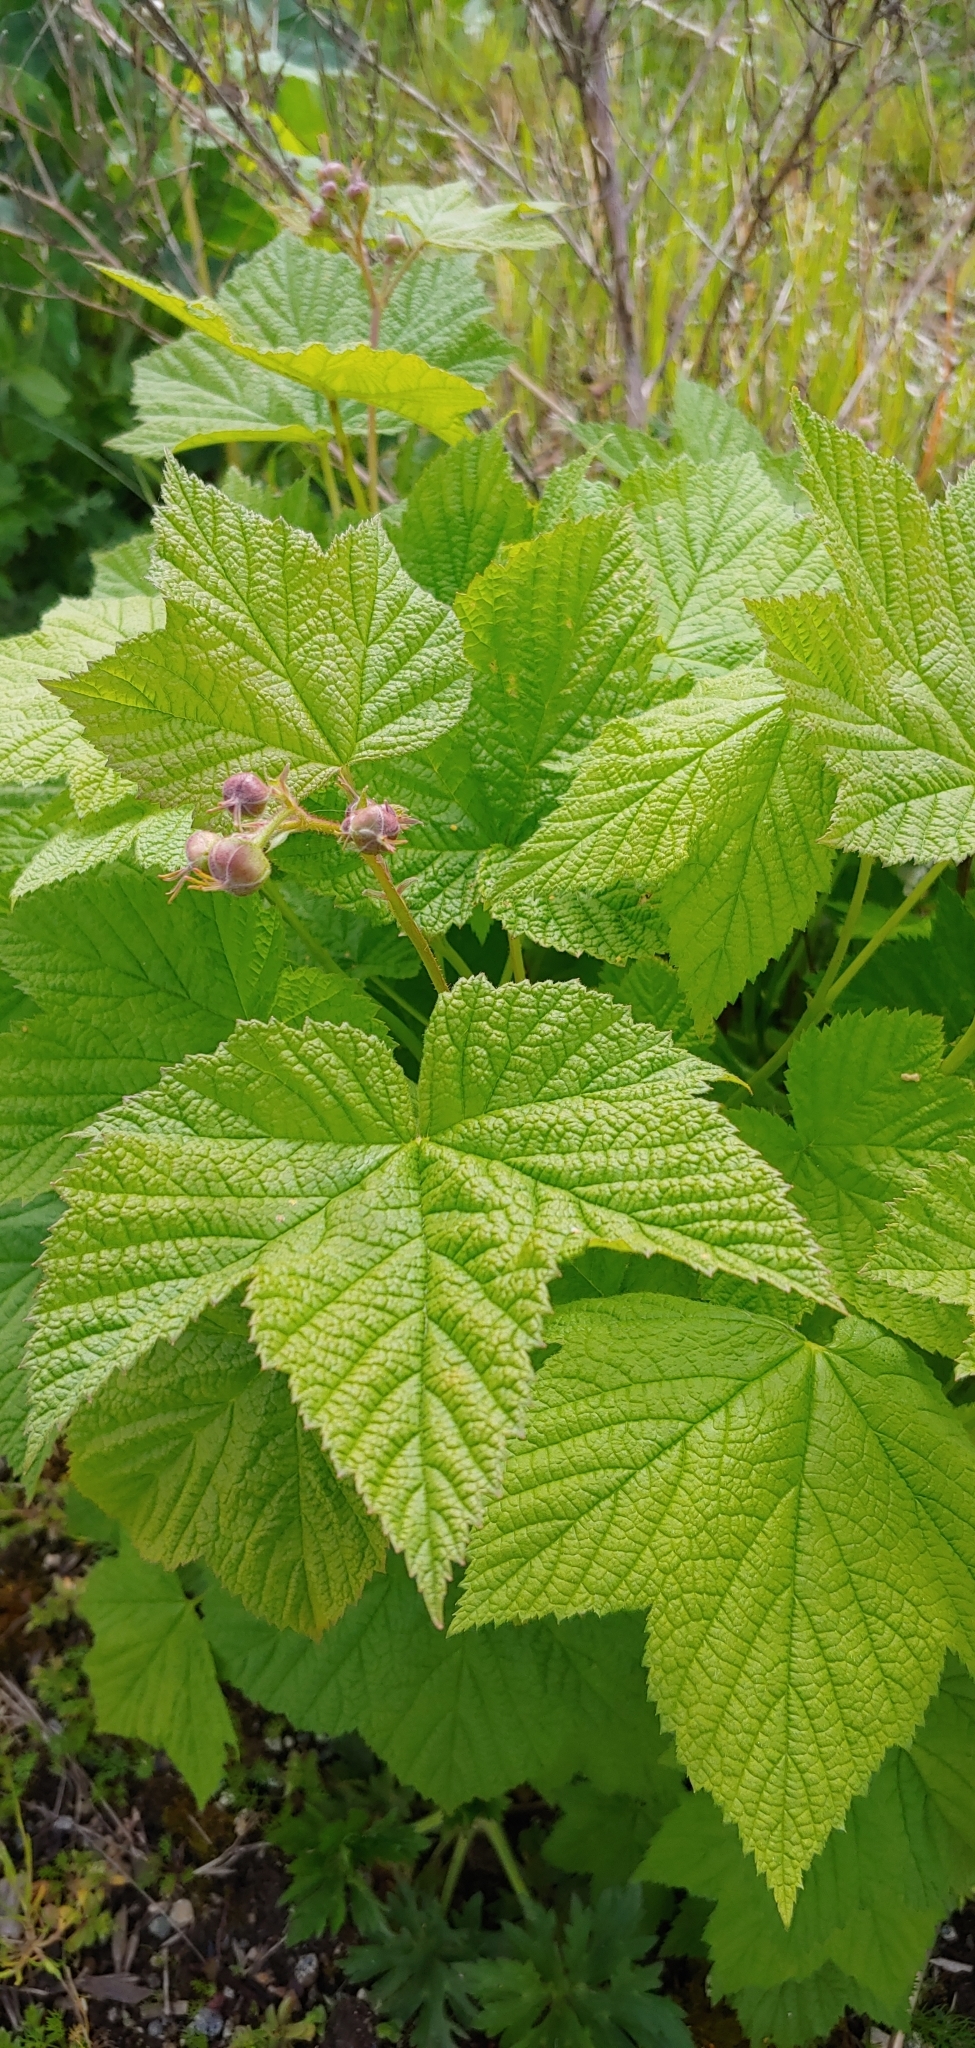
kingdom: Plantae
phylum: Tracheophyta
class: Magnoliopsida
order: Rosales
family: Rosaceae
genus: Rubus
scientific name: Rubus parviflorus
